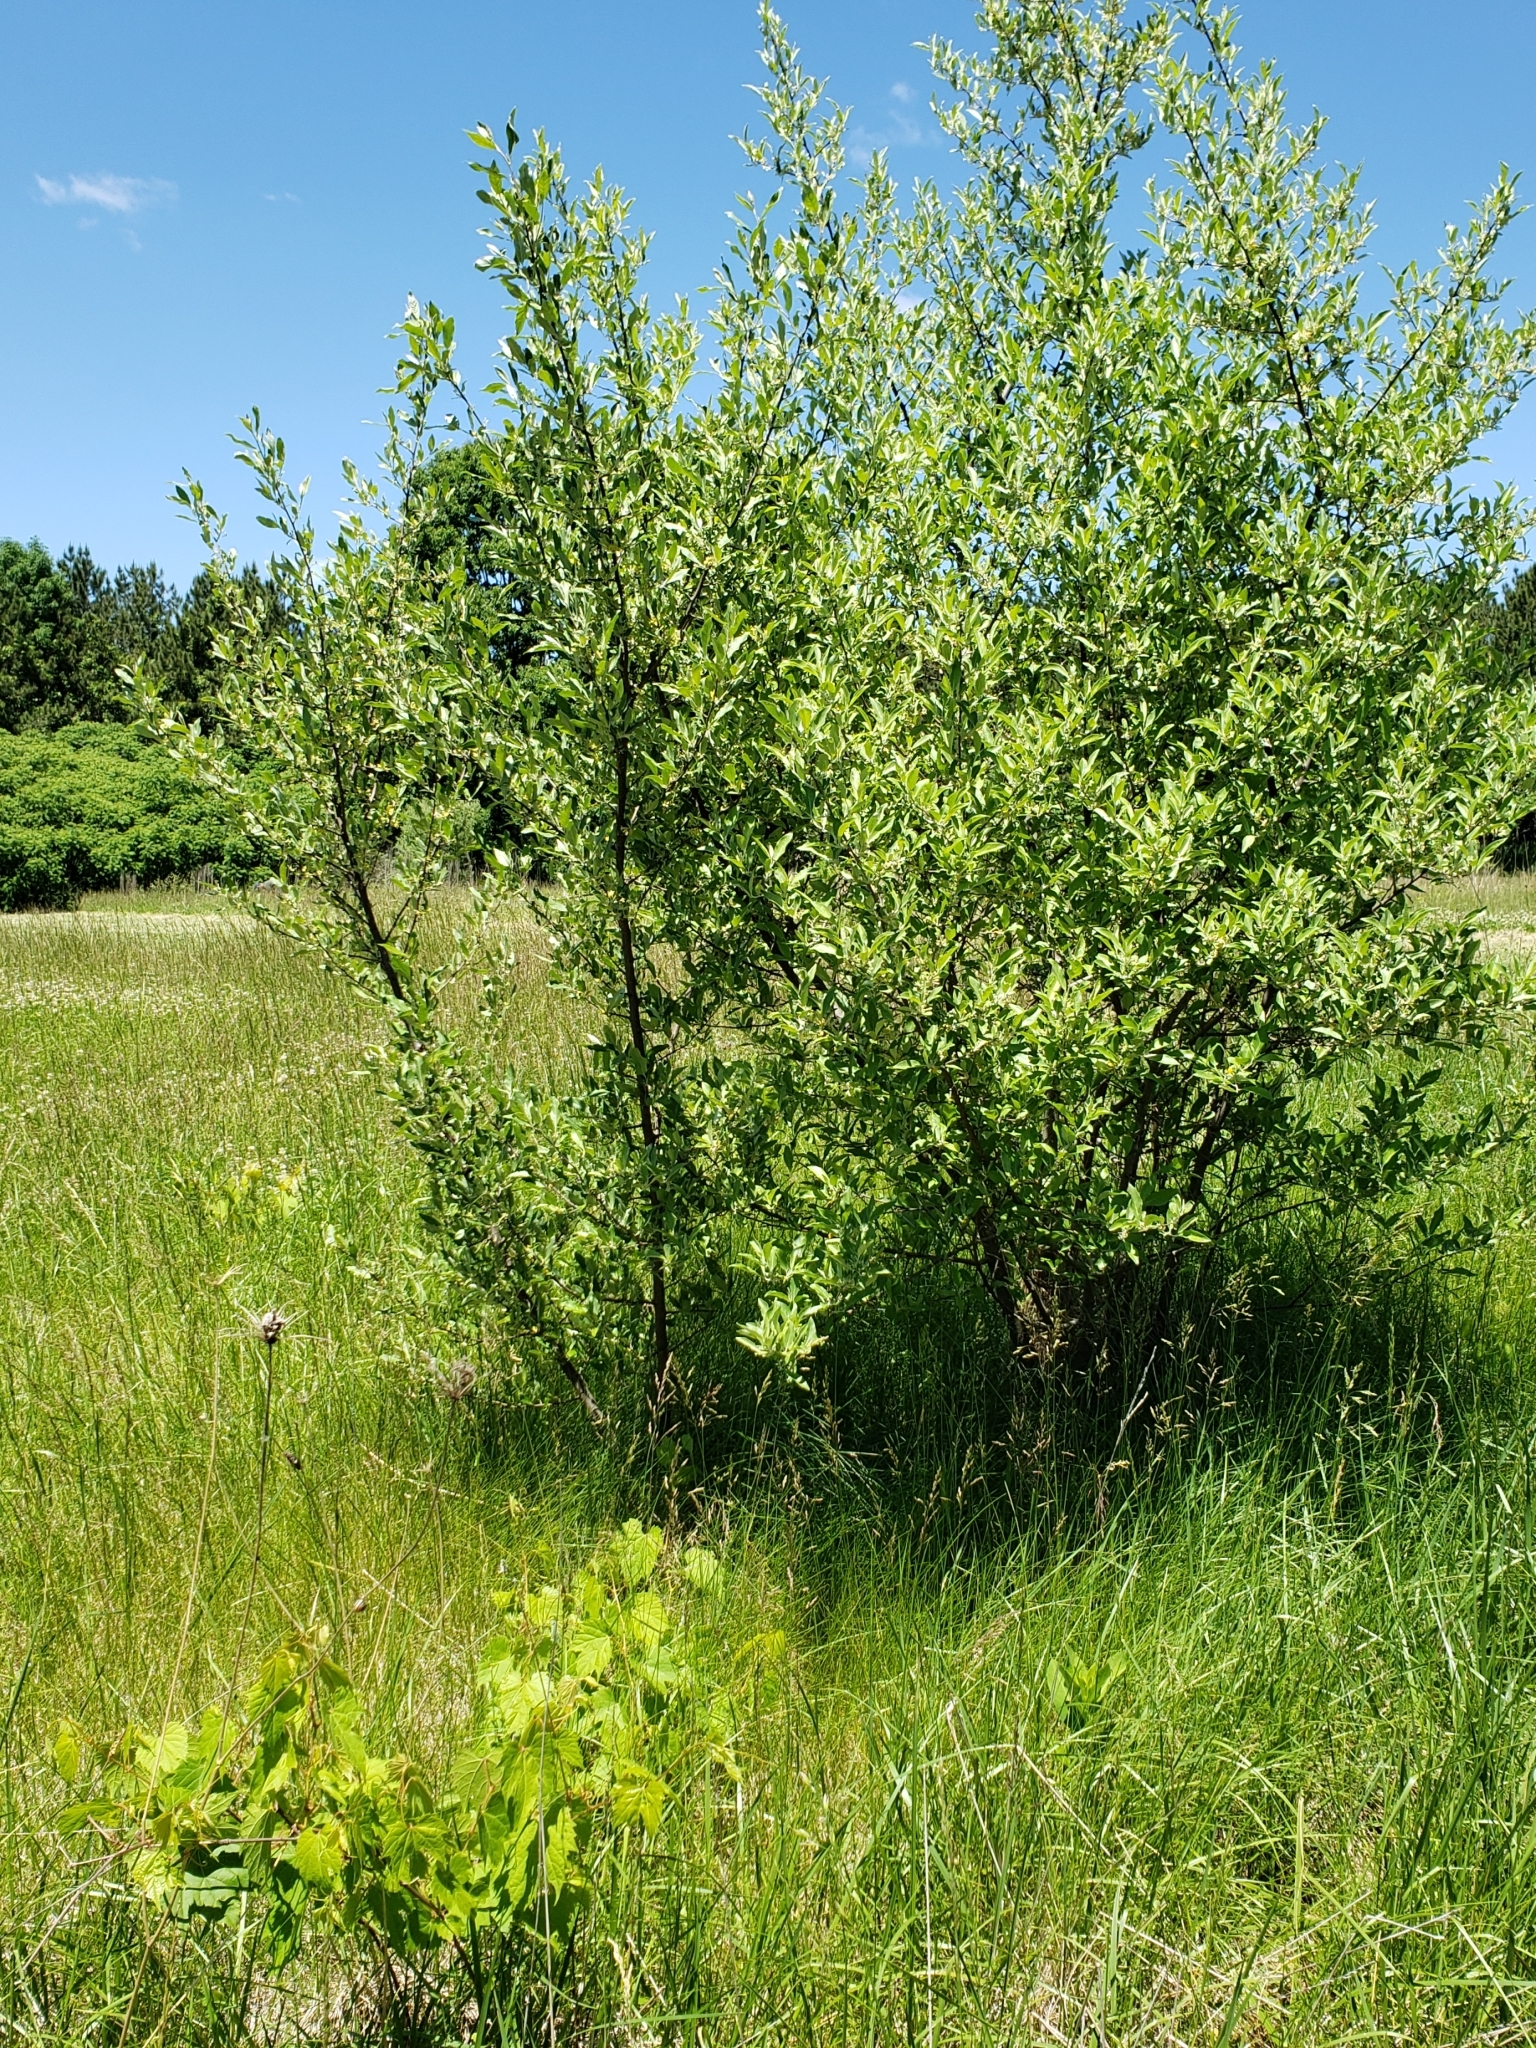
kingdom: Plantae
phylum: Tracheophyta
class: Magnoliopsida
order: Rosales
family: Elaeagnaceae
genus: Elaeagnus
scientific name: Elaeagnus umbellata
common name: Autumn olive
